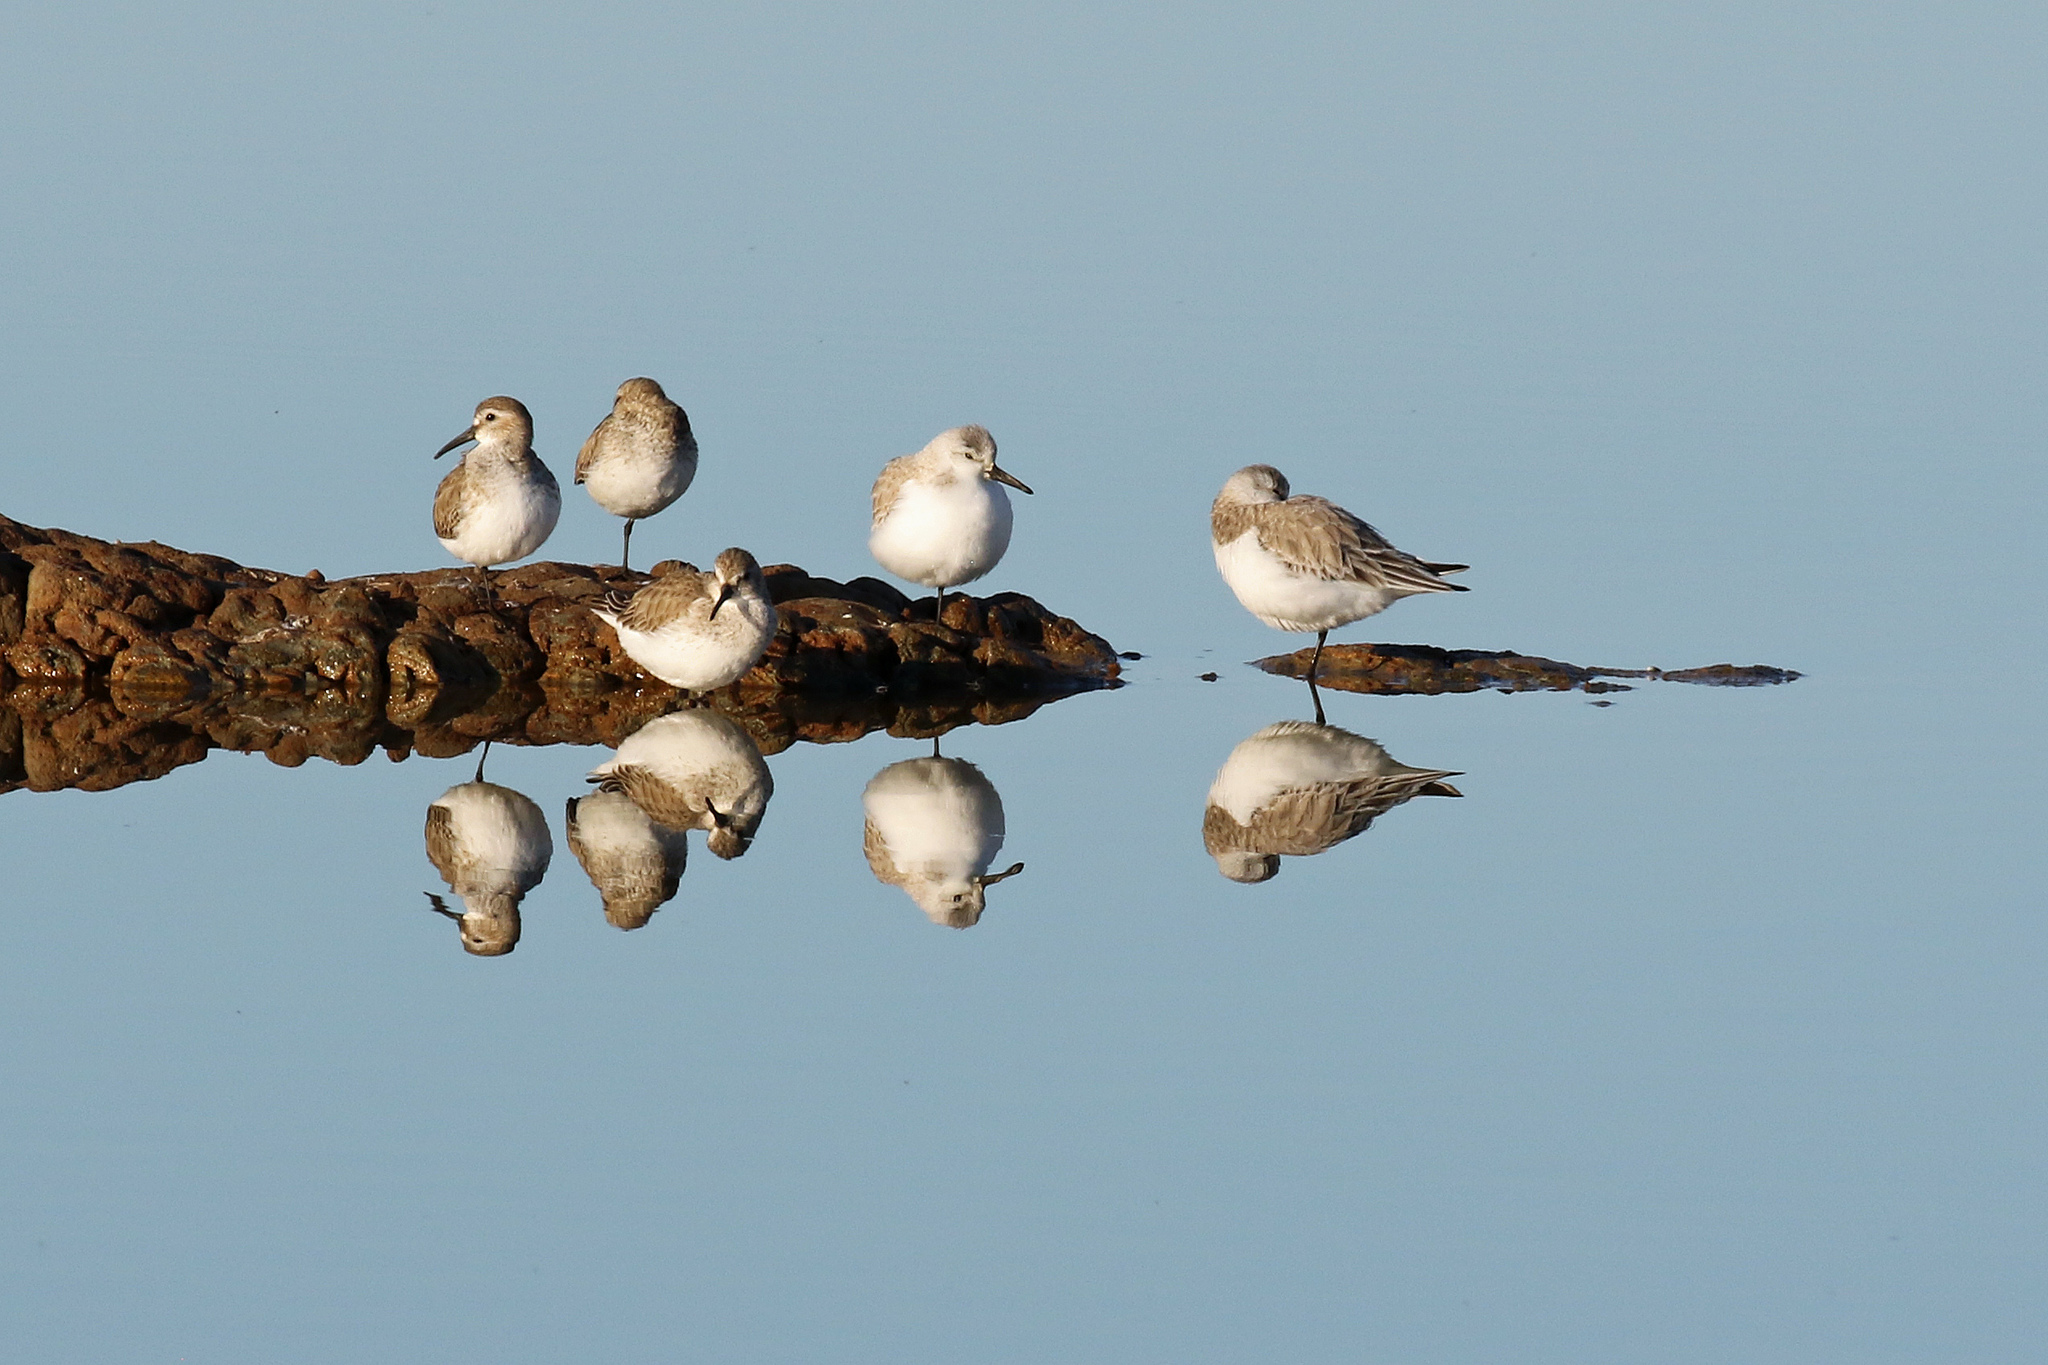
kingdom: Animalia
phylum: Chordata
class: Aves
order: Charadriiformes
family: Scolopacidae
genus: Calidris
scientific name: Calidris alpina
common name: Dunlin
